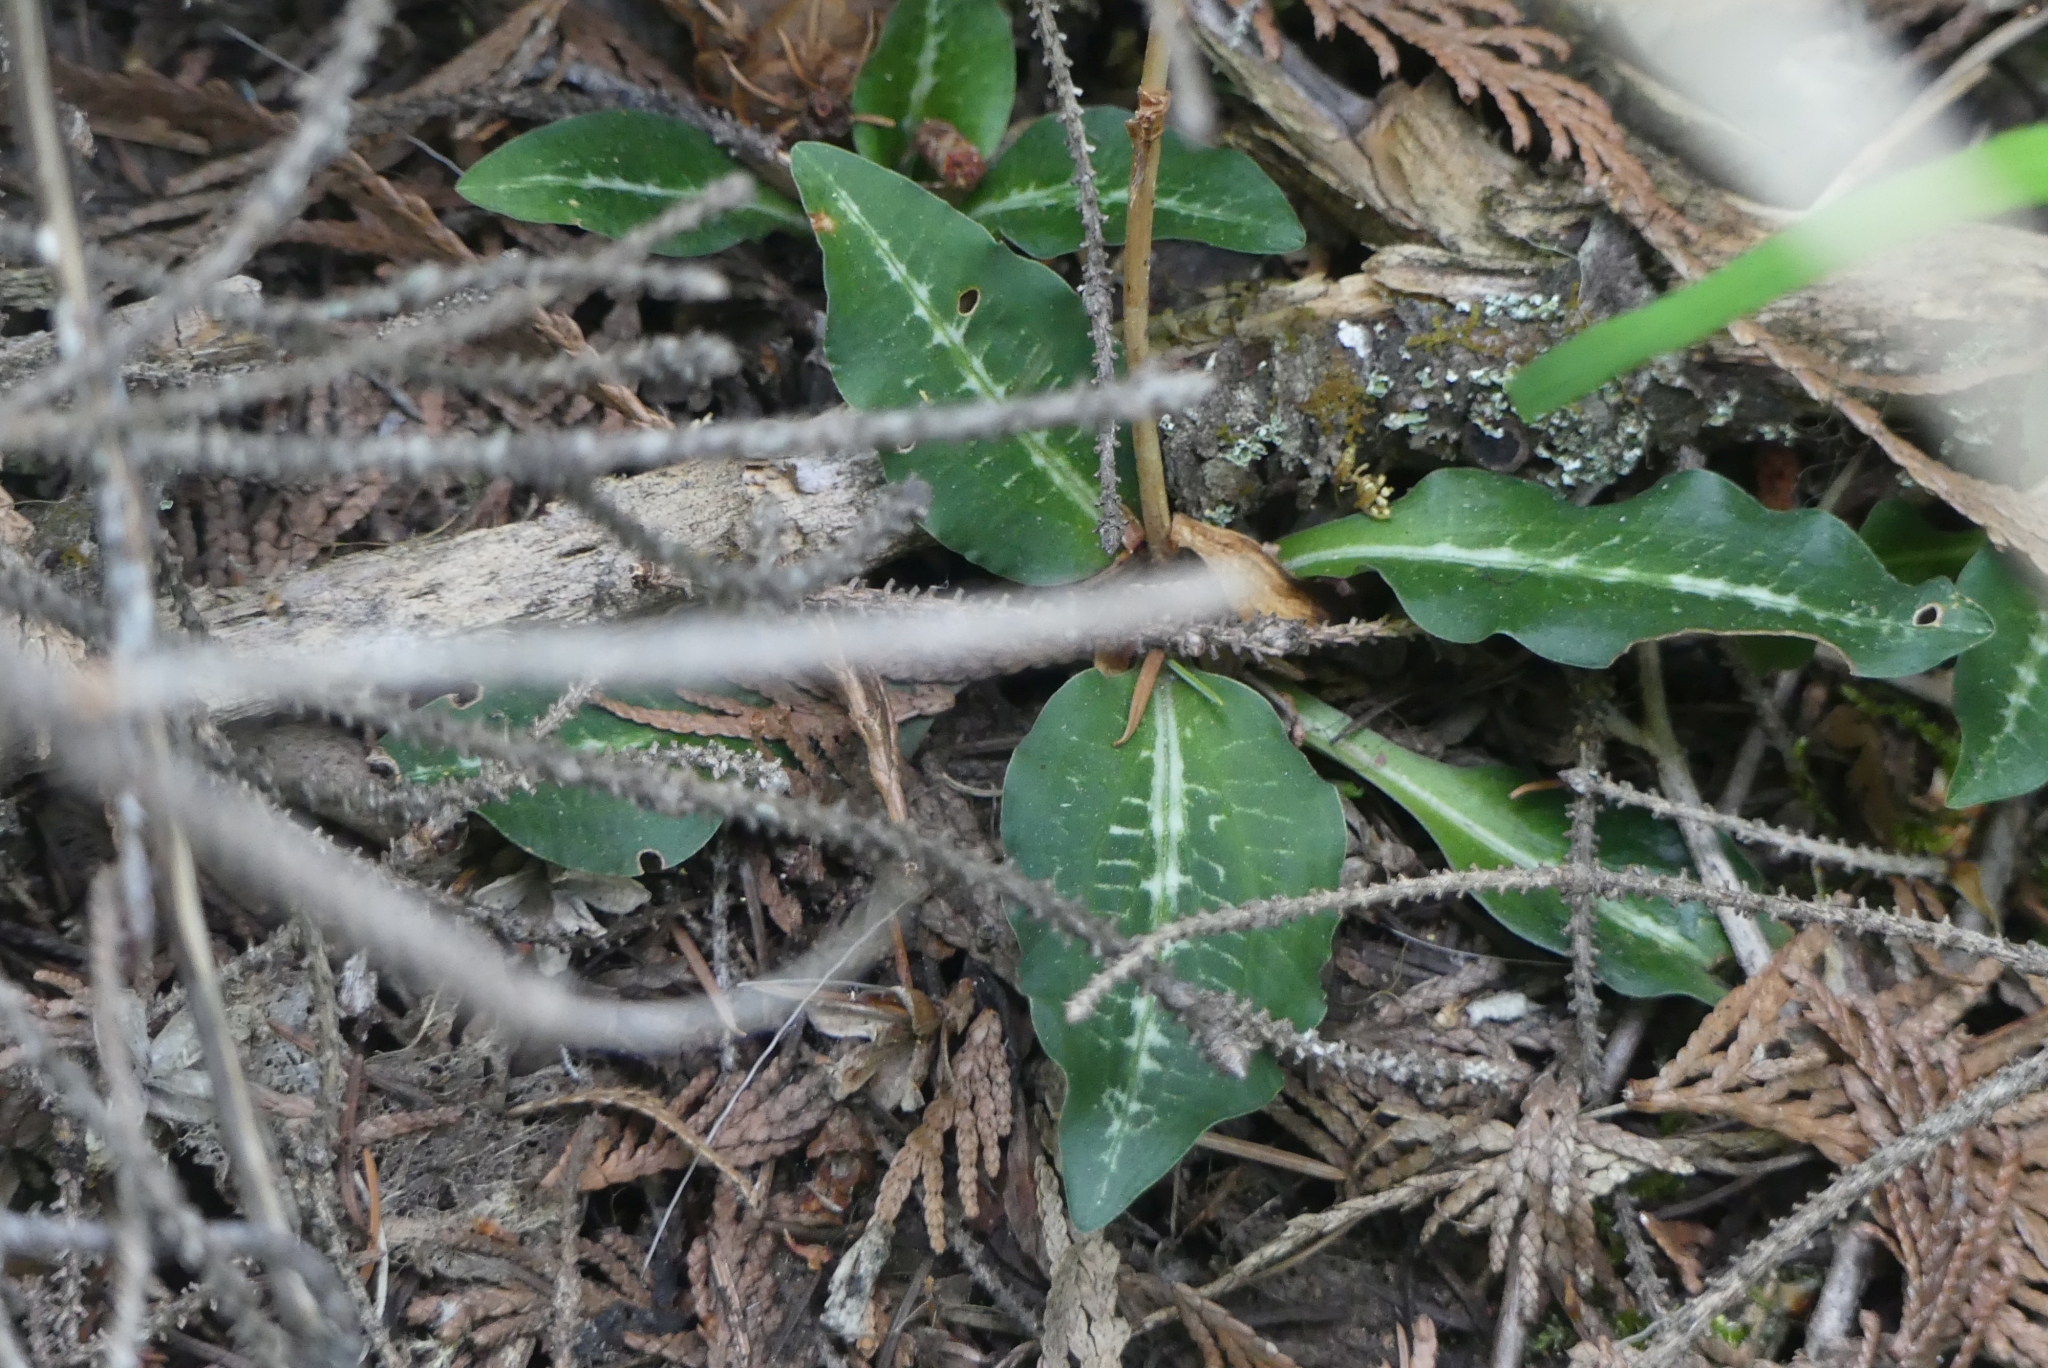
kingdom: Plantae
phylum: Tracheophyta
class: Liliopsida
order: Asparagales
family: Orchidaceae
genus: Goodyera
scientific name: Goodyera oblongifolia
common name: Giant rattlesnake-plantain
